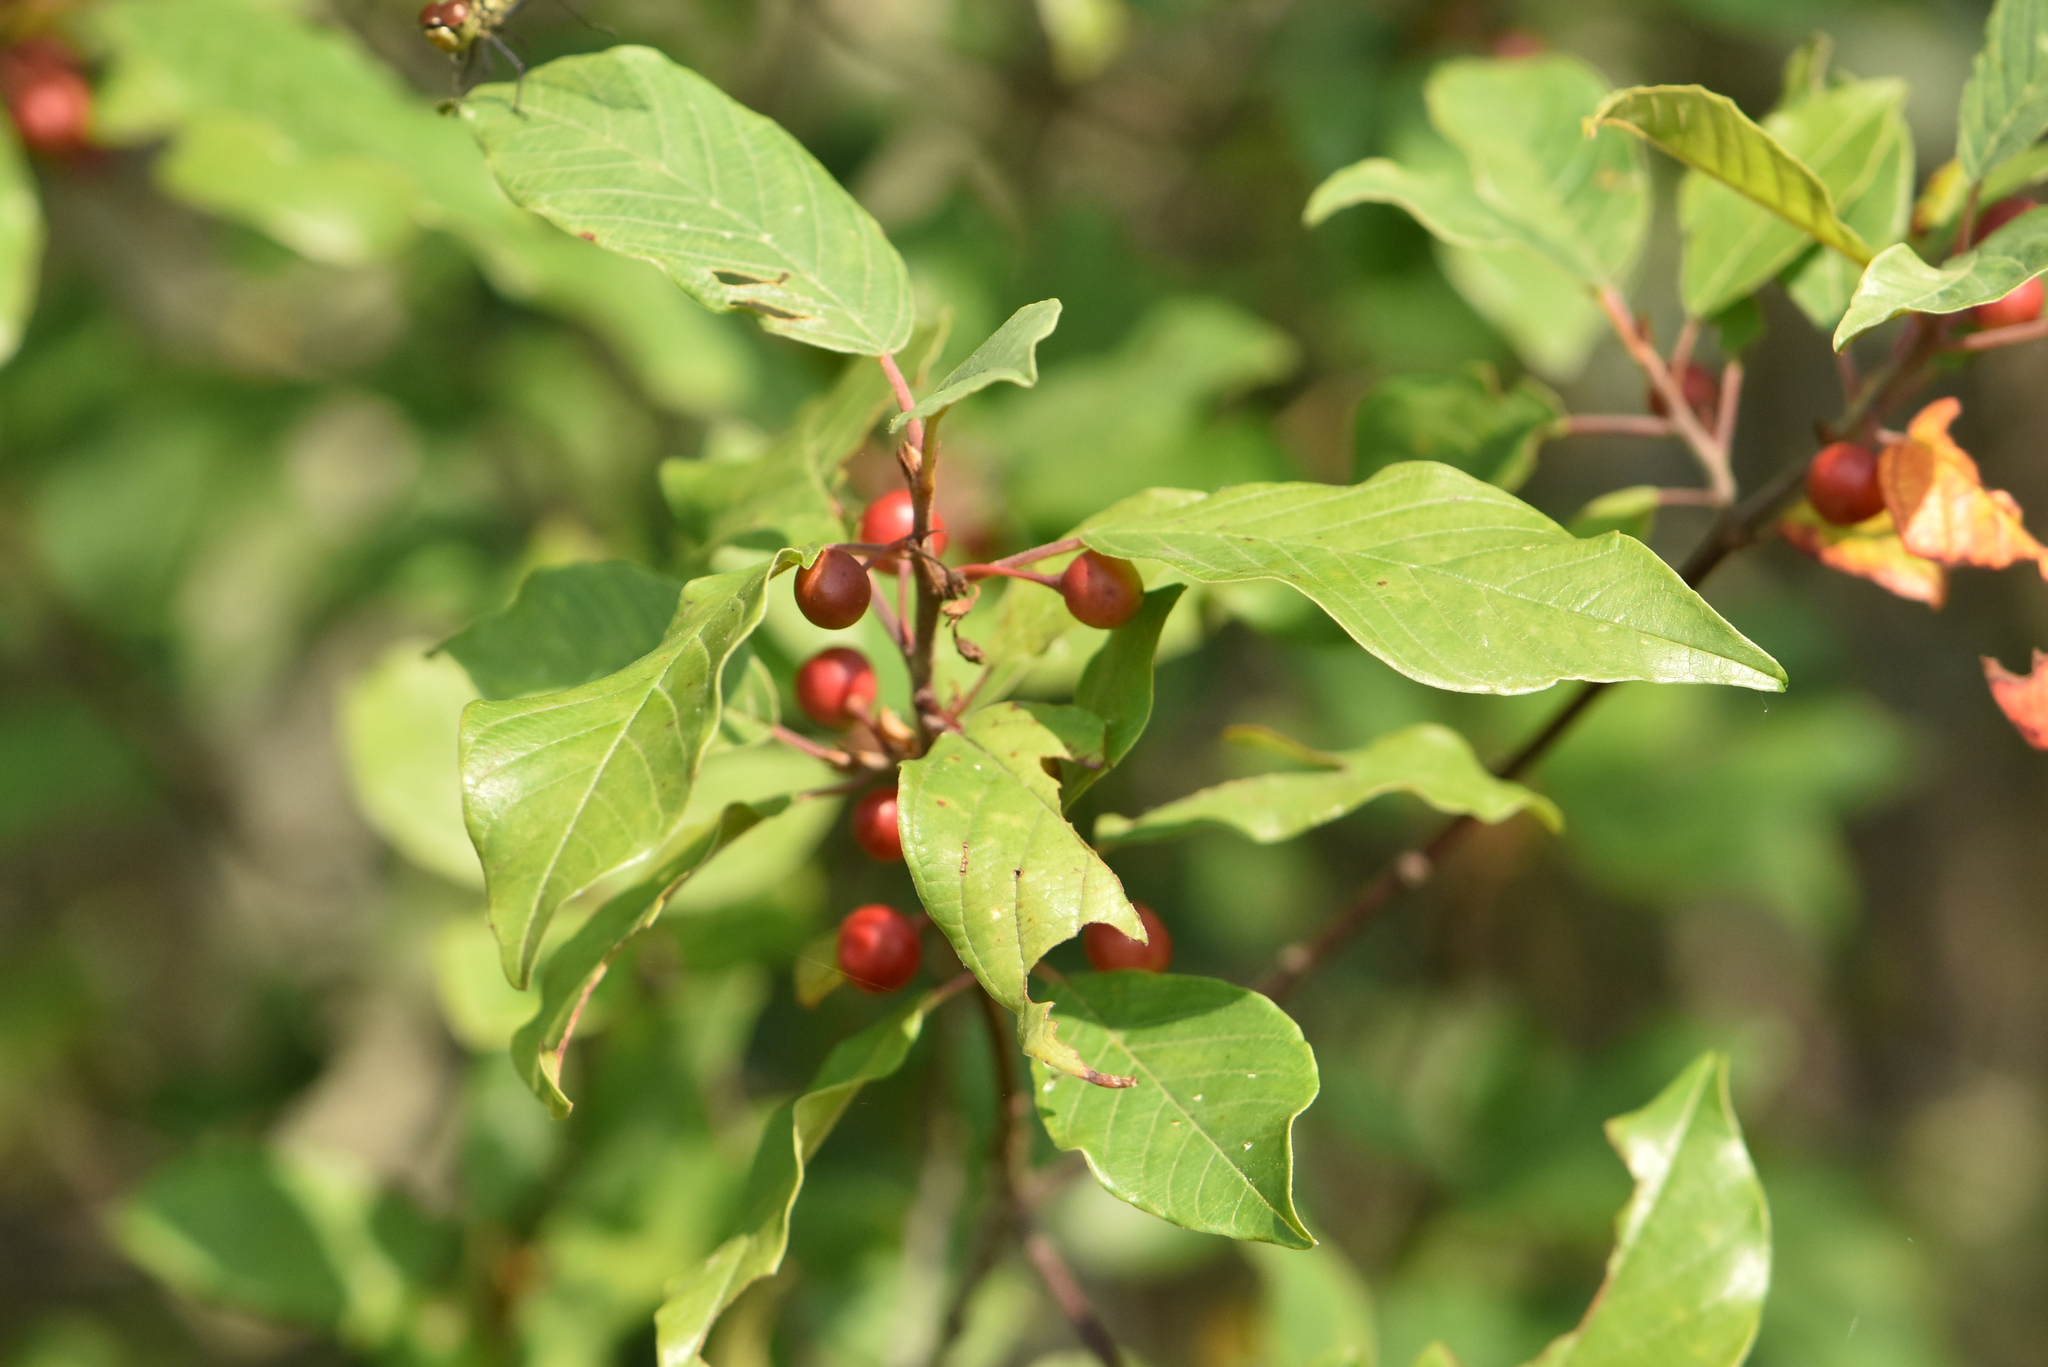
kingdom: Plantae
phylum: Tracheophyta
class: Magnoliopsida
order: Rosales
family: Rhamnaceae
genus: Frangula
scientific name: Frangula alnus
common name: Alder buckthorn
